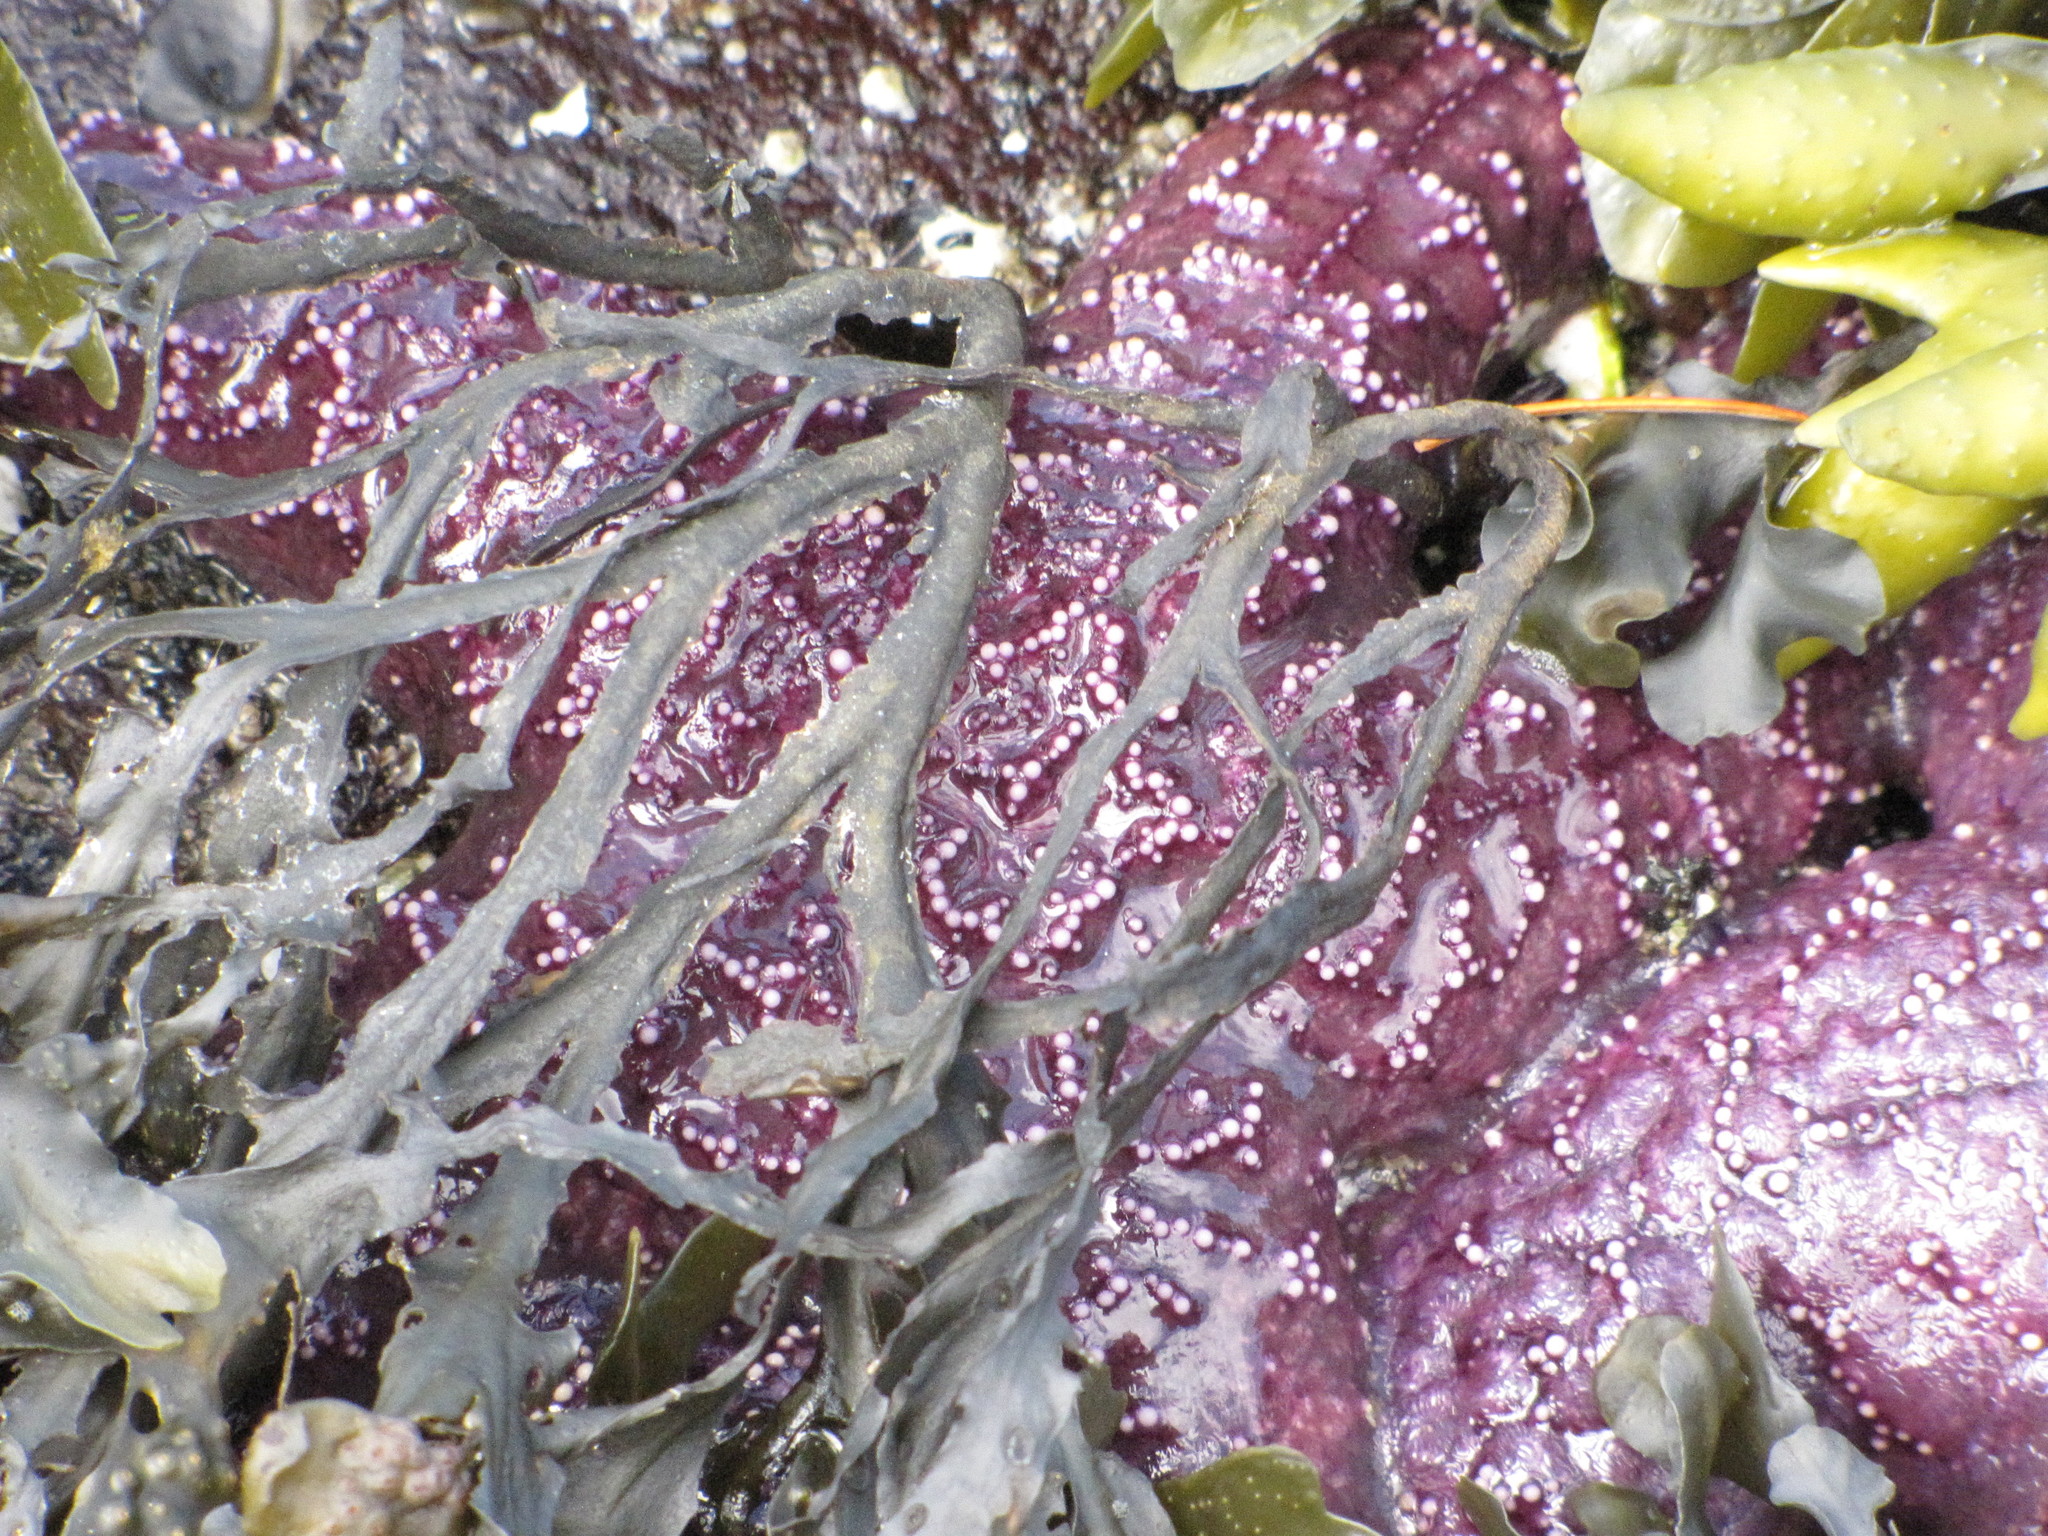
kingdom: Animalia
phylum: Echinodermata
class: Asteroidea
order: Forcipulatida
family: Asteriidae
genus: Pisaster
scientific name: Pisaster ochraceus
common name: Ochre stars
